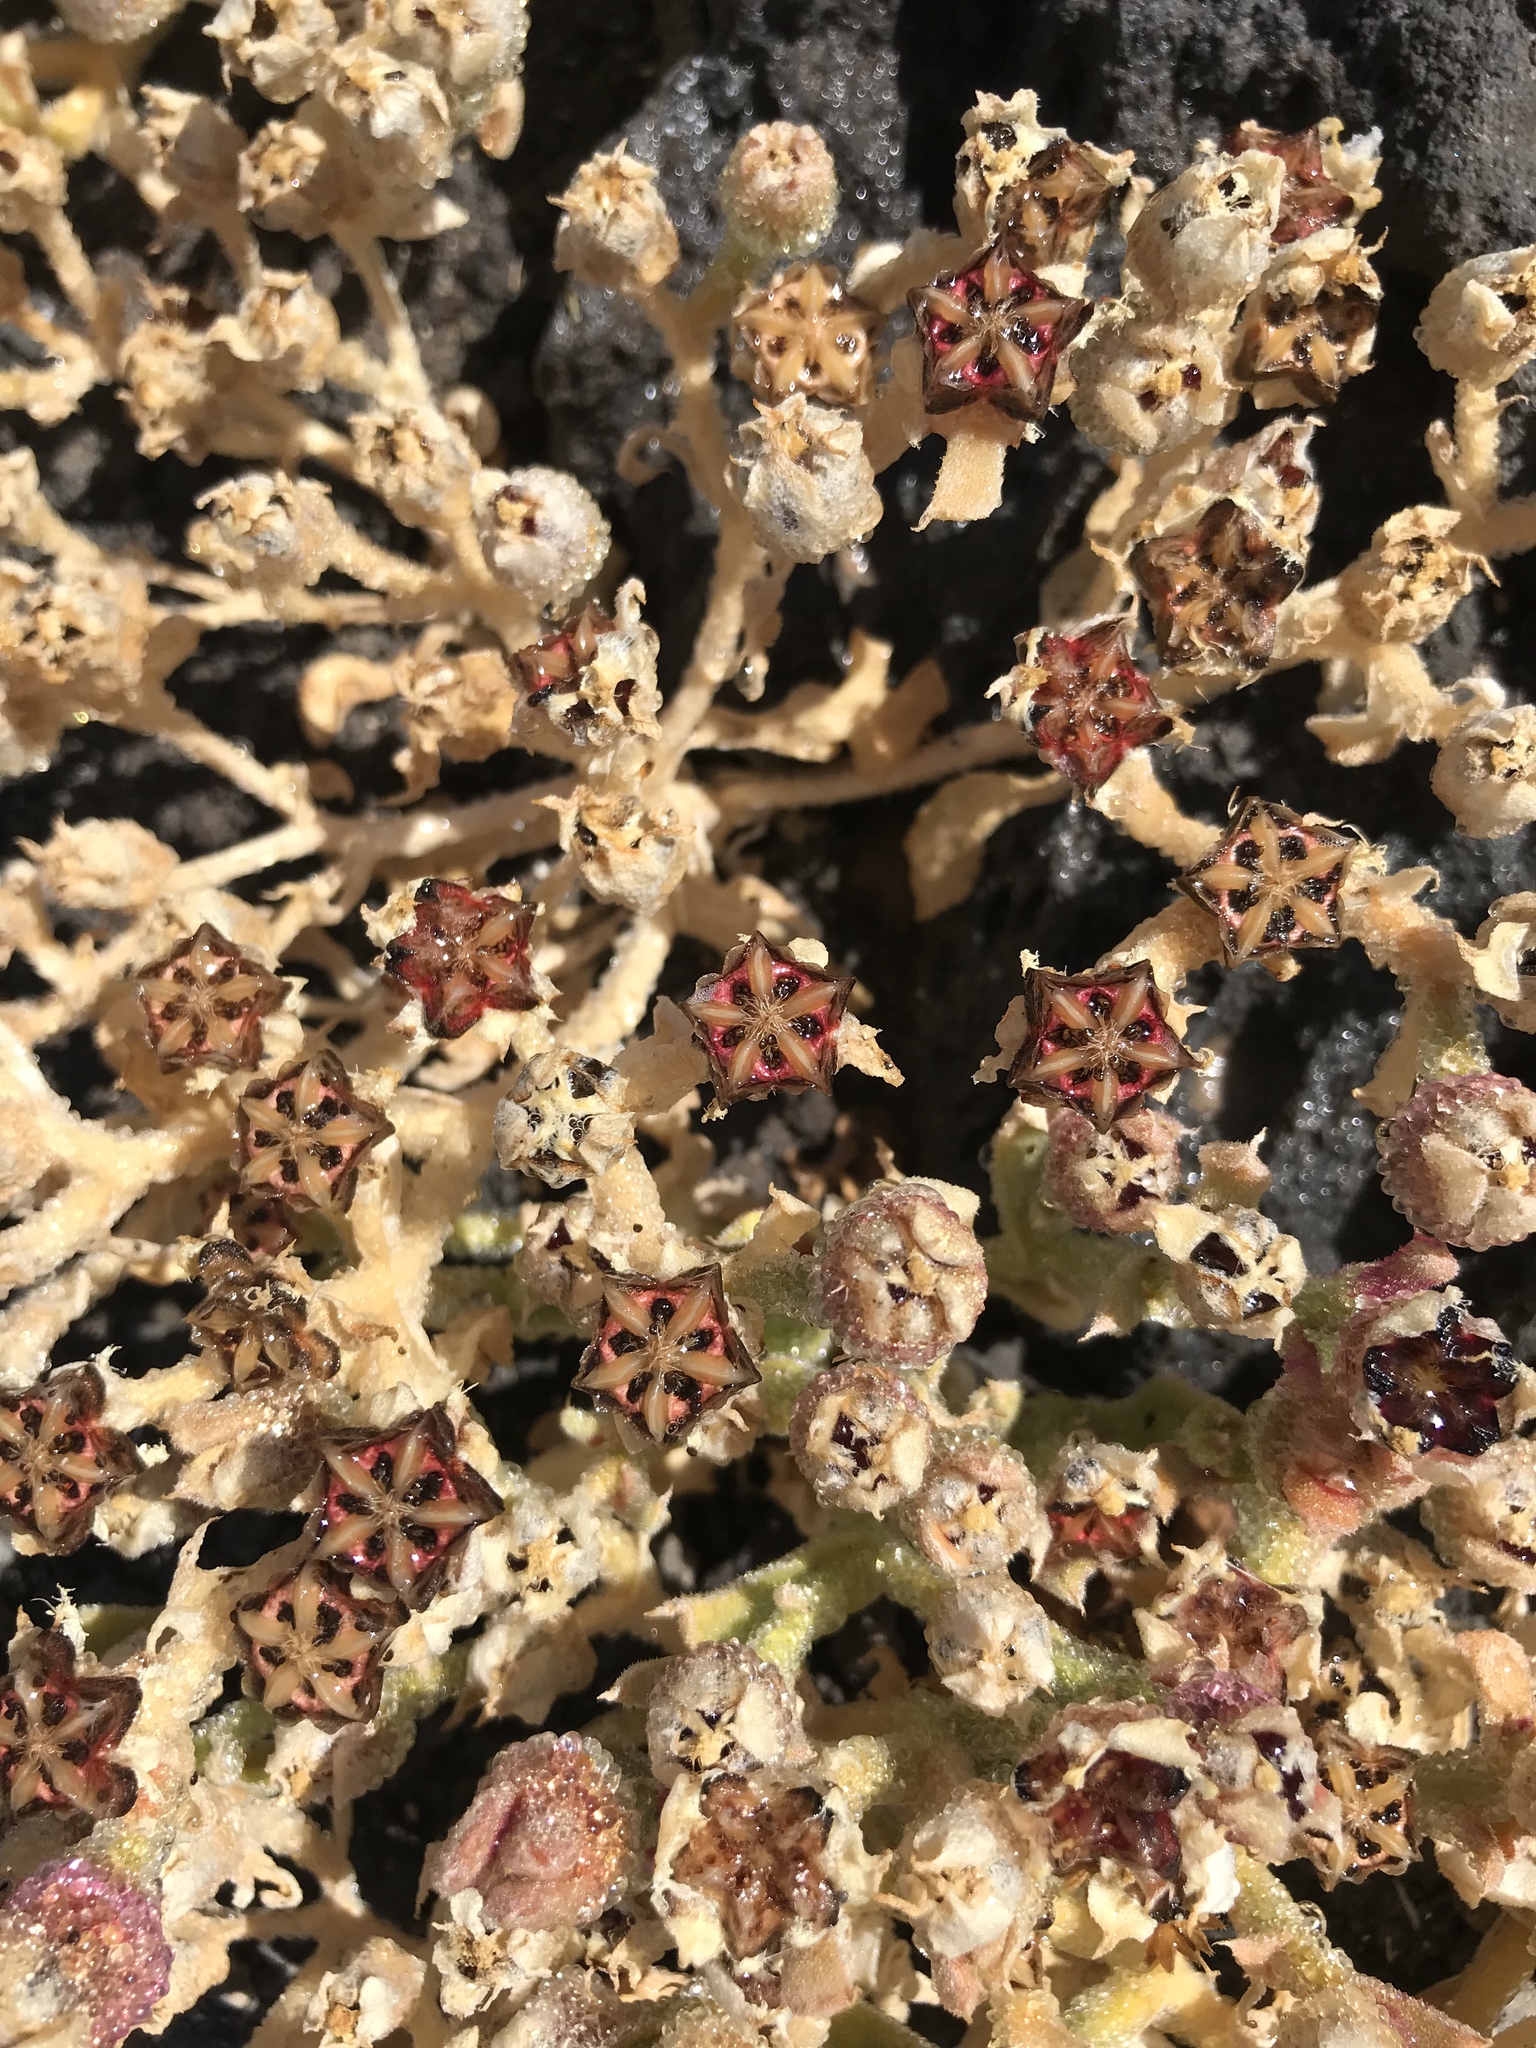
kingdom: Plantae
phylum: Tracheophyta
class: Magnoliopsida
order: Caryophyllales
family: Aizoaceae
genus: Mesembryanthemum
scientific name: Mesembryanthemum crystallinum
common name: Common iceplant
